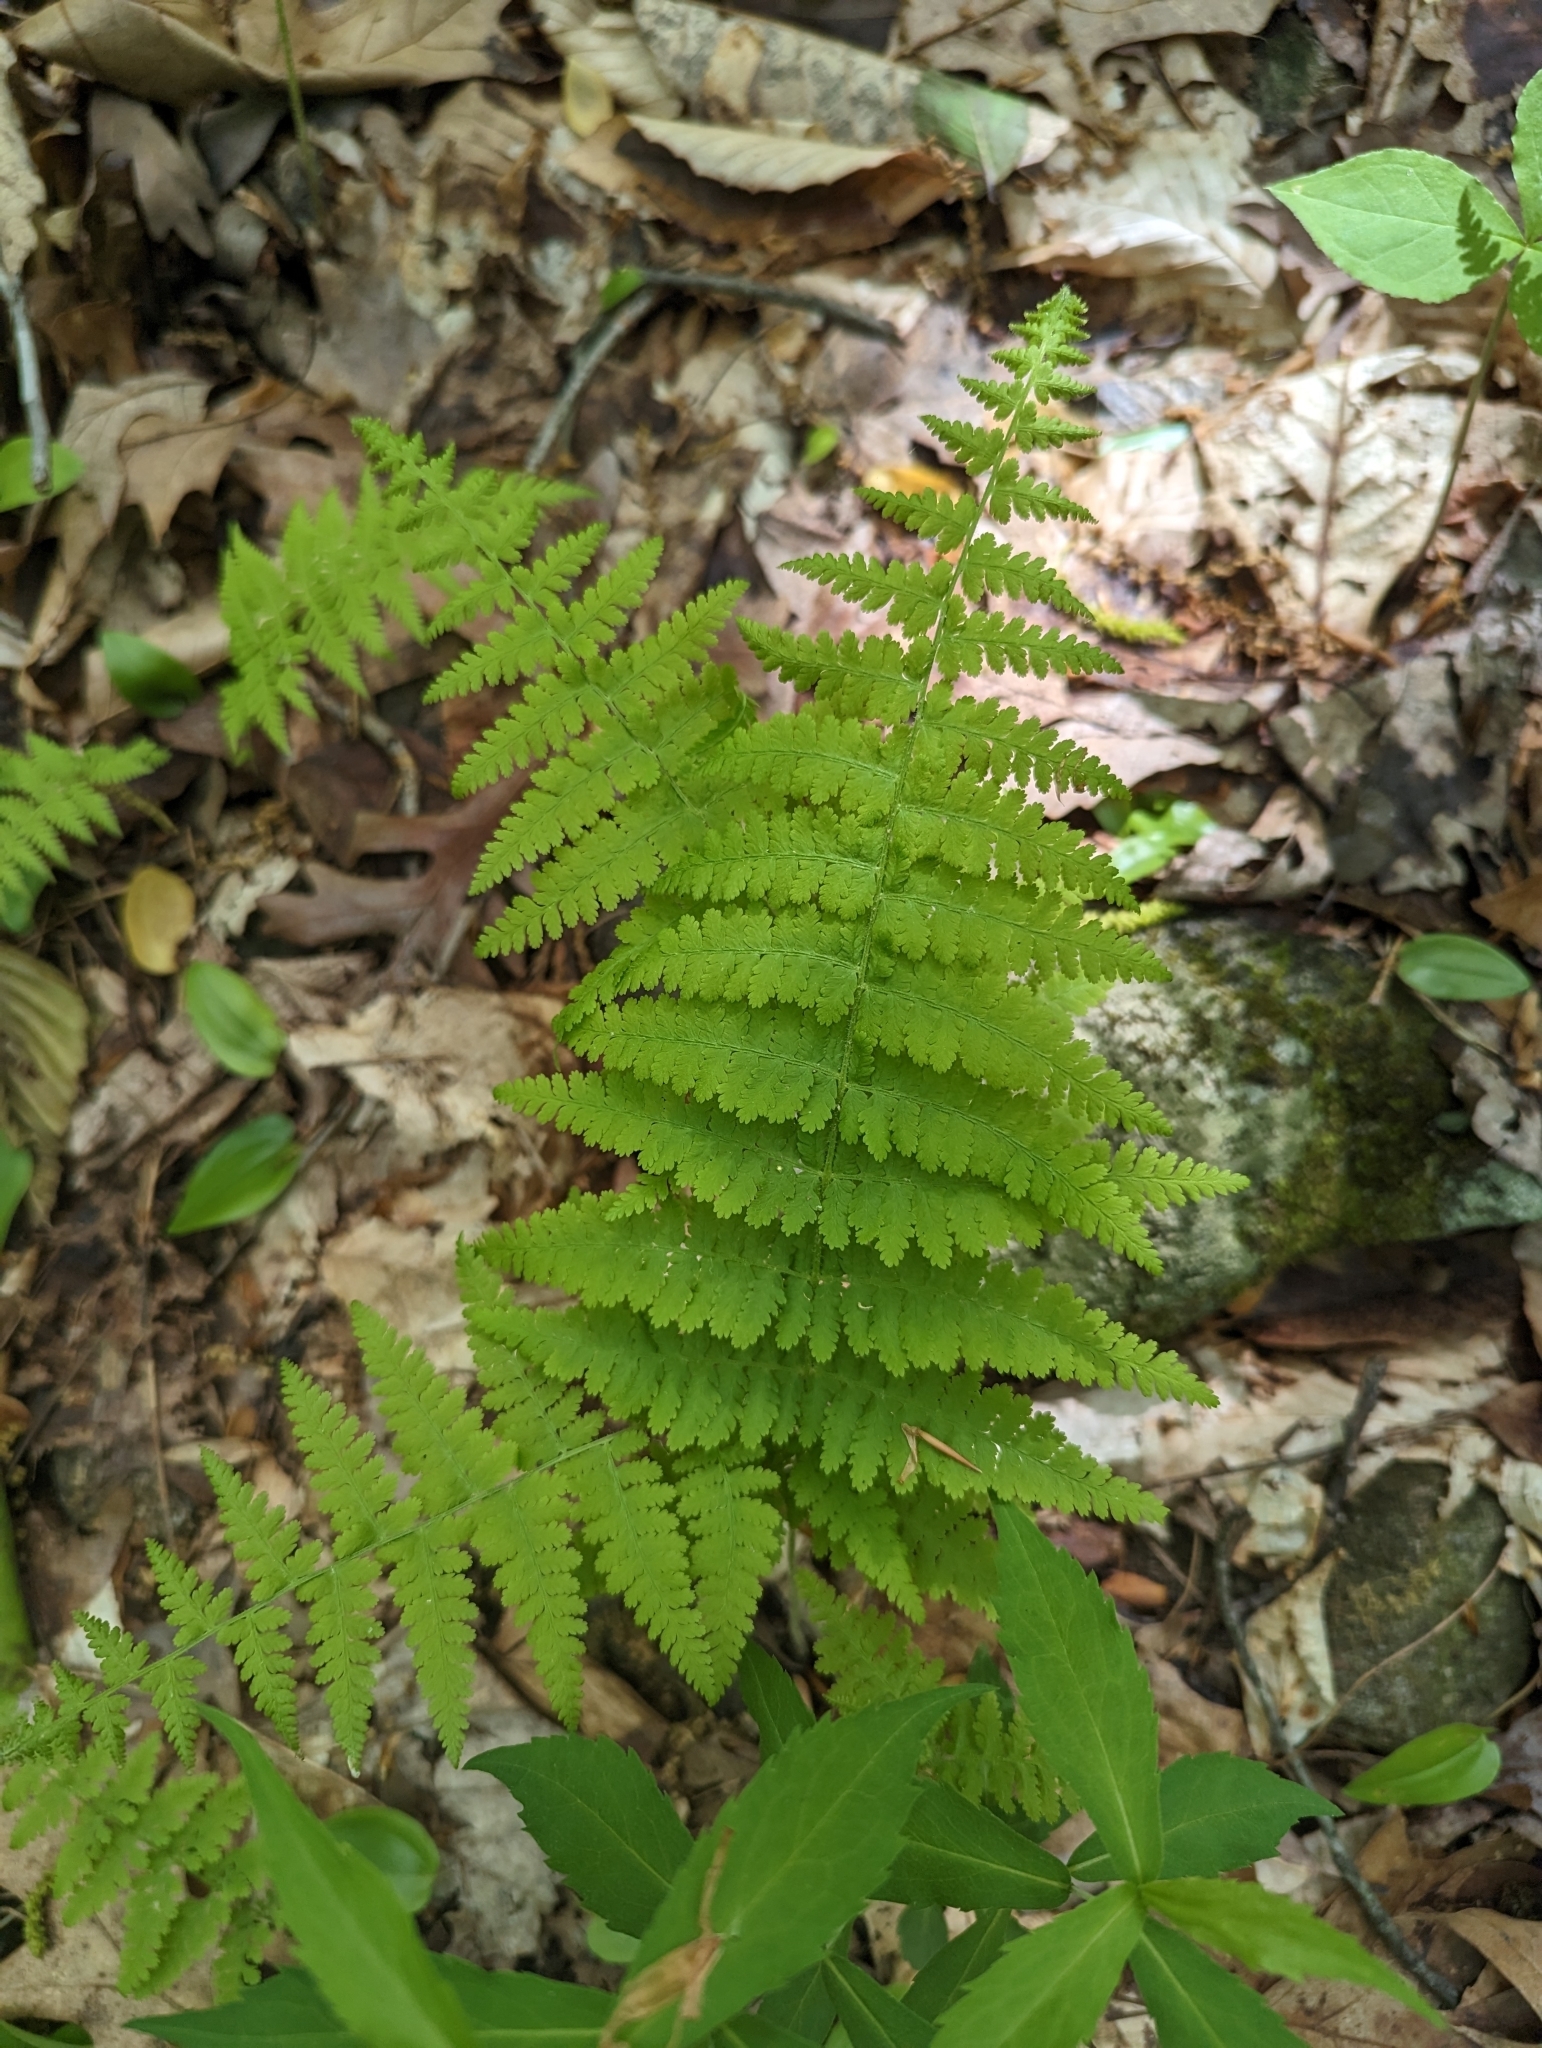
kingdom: Plantae
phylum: Tracheophyta
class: Polypodiopsida
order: Polypodiales
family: Dennstaedtiaceae
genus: Sitobolium
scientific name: Sitobolium punctilobum
